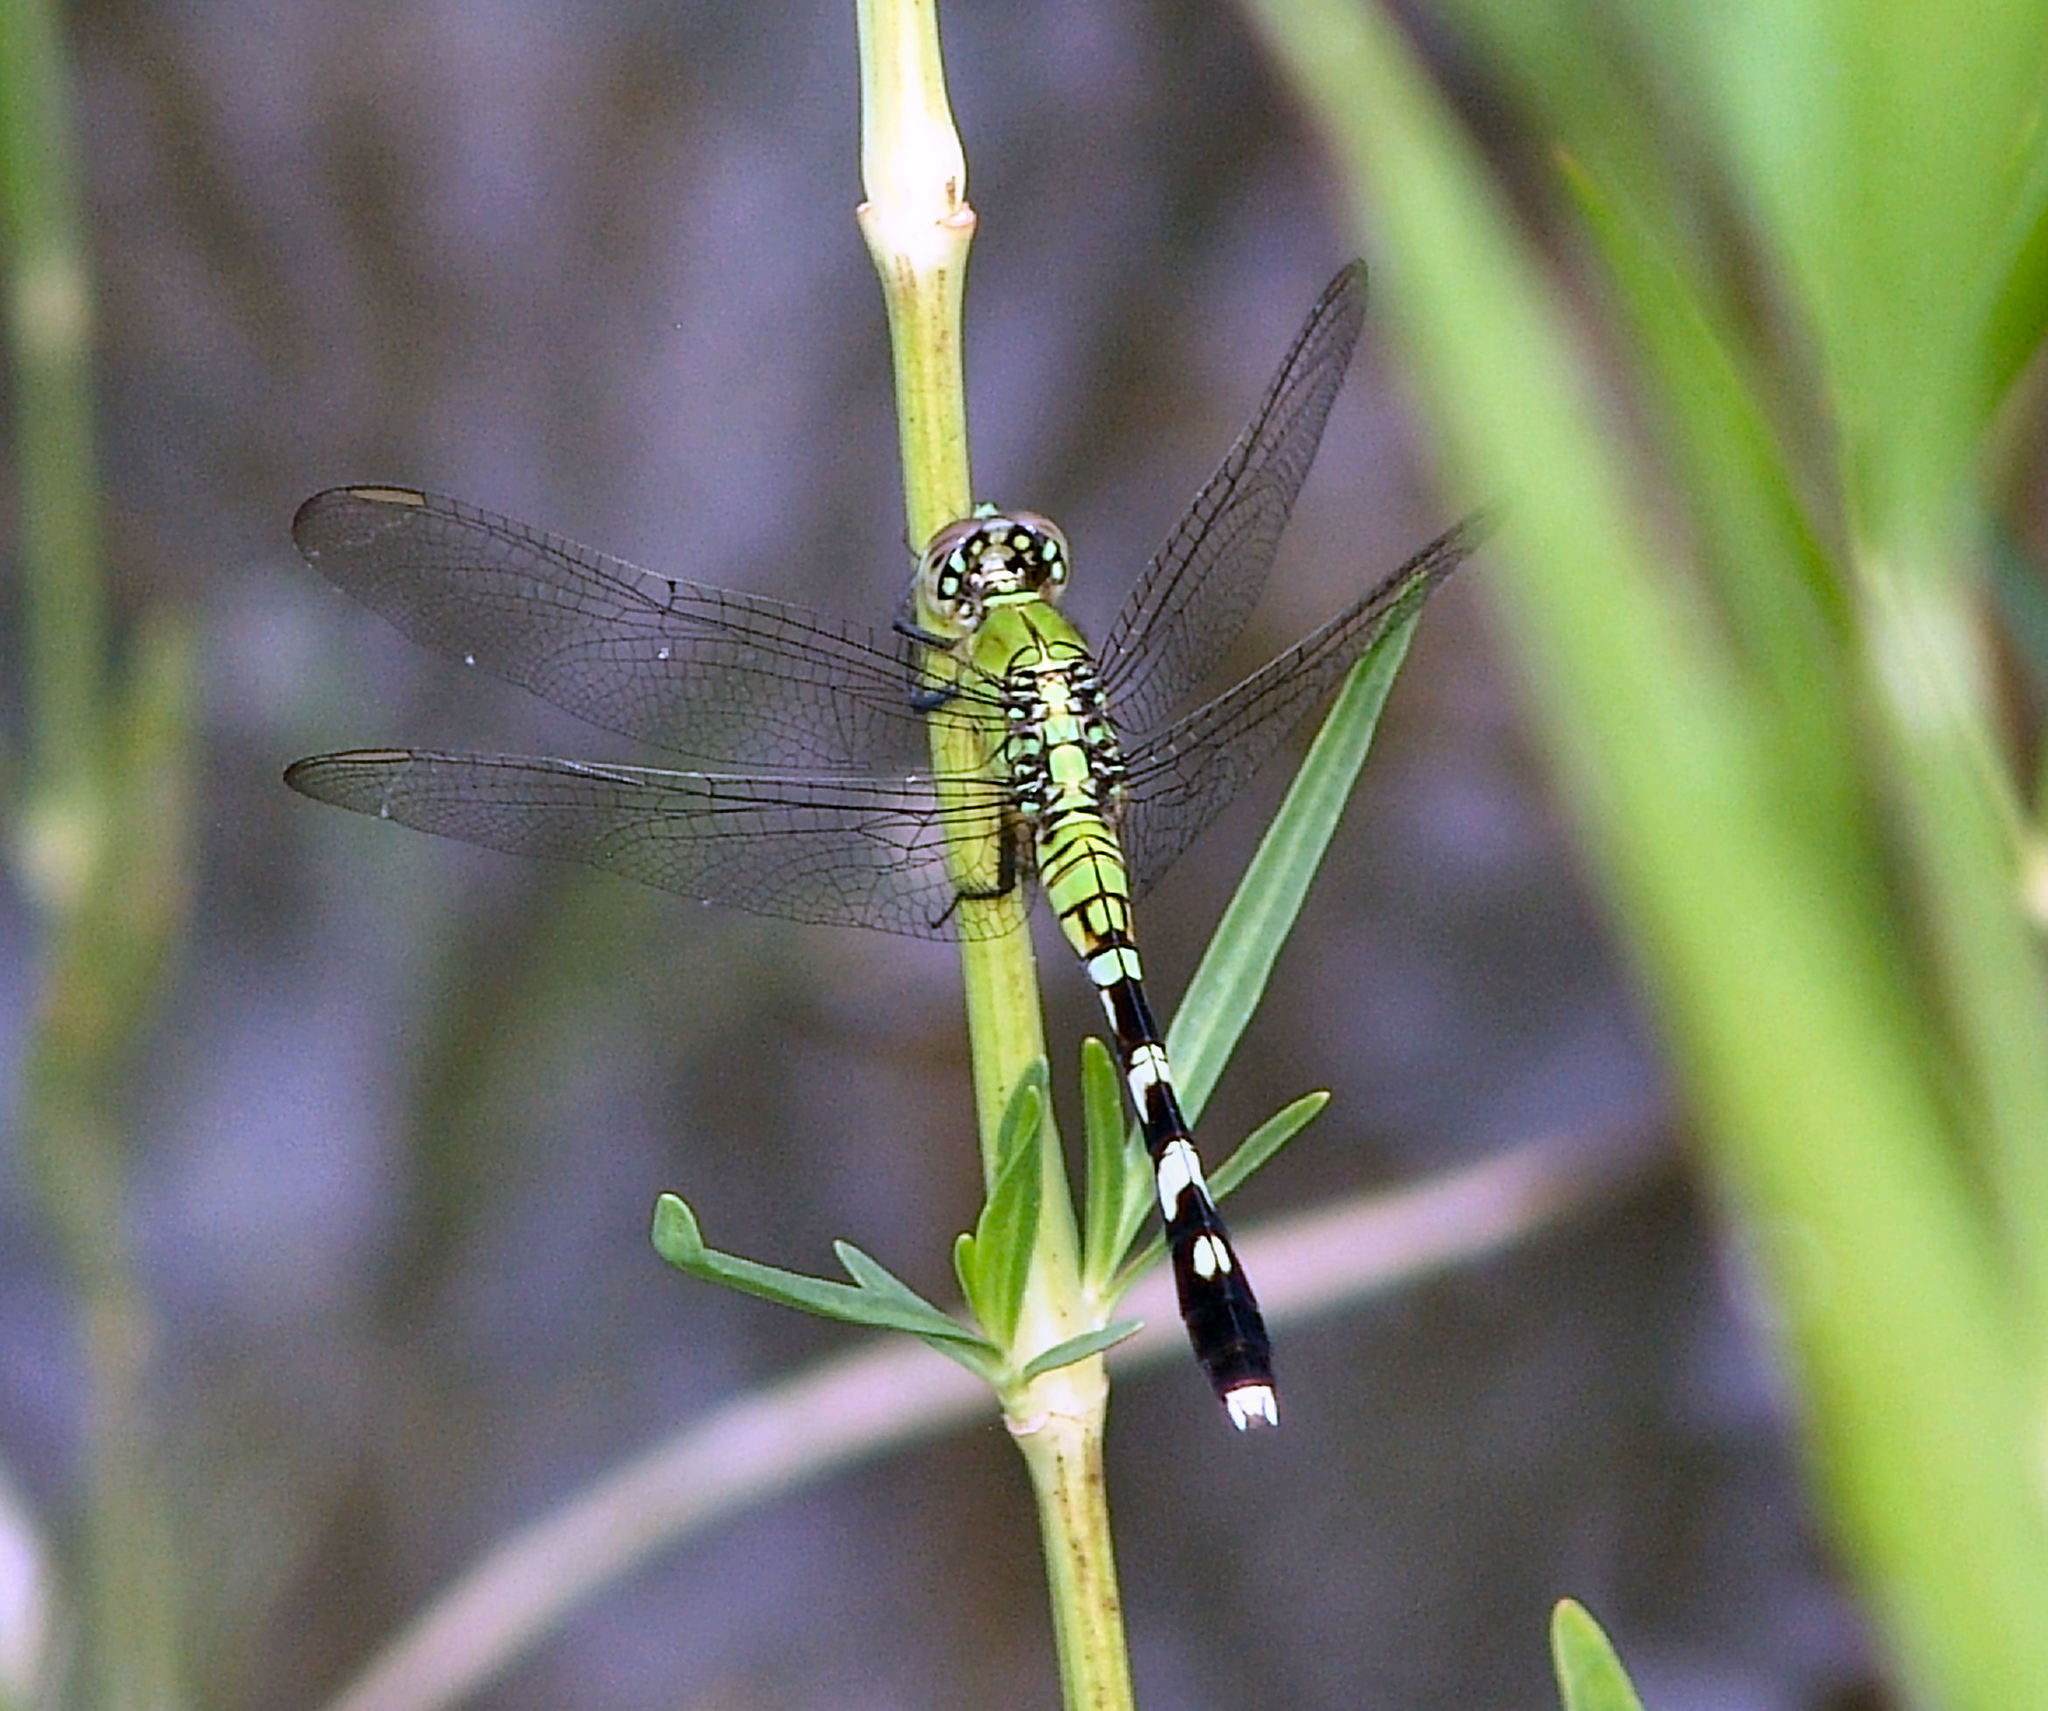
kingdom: Animalia
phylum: Arthropoda
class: Insecta
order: Odonata
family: Libellulidae
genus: Erythemis
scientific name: Erythemis simplicicollis
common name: Eastern pondhawk
